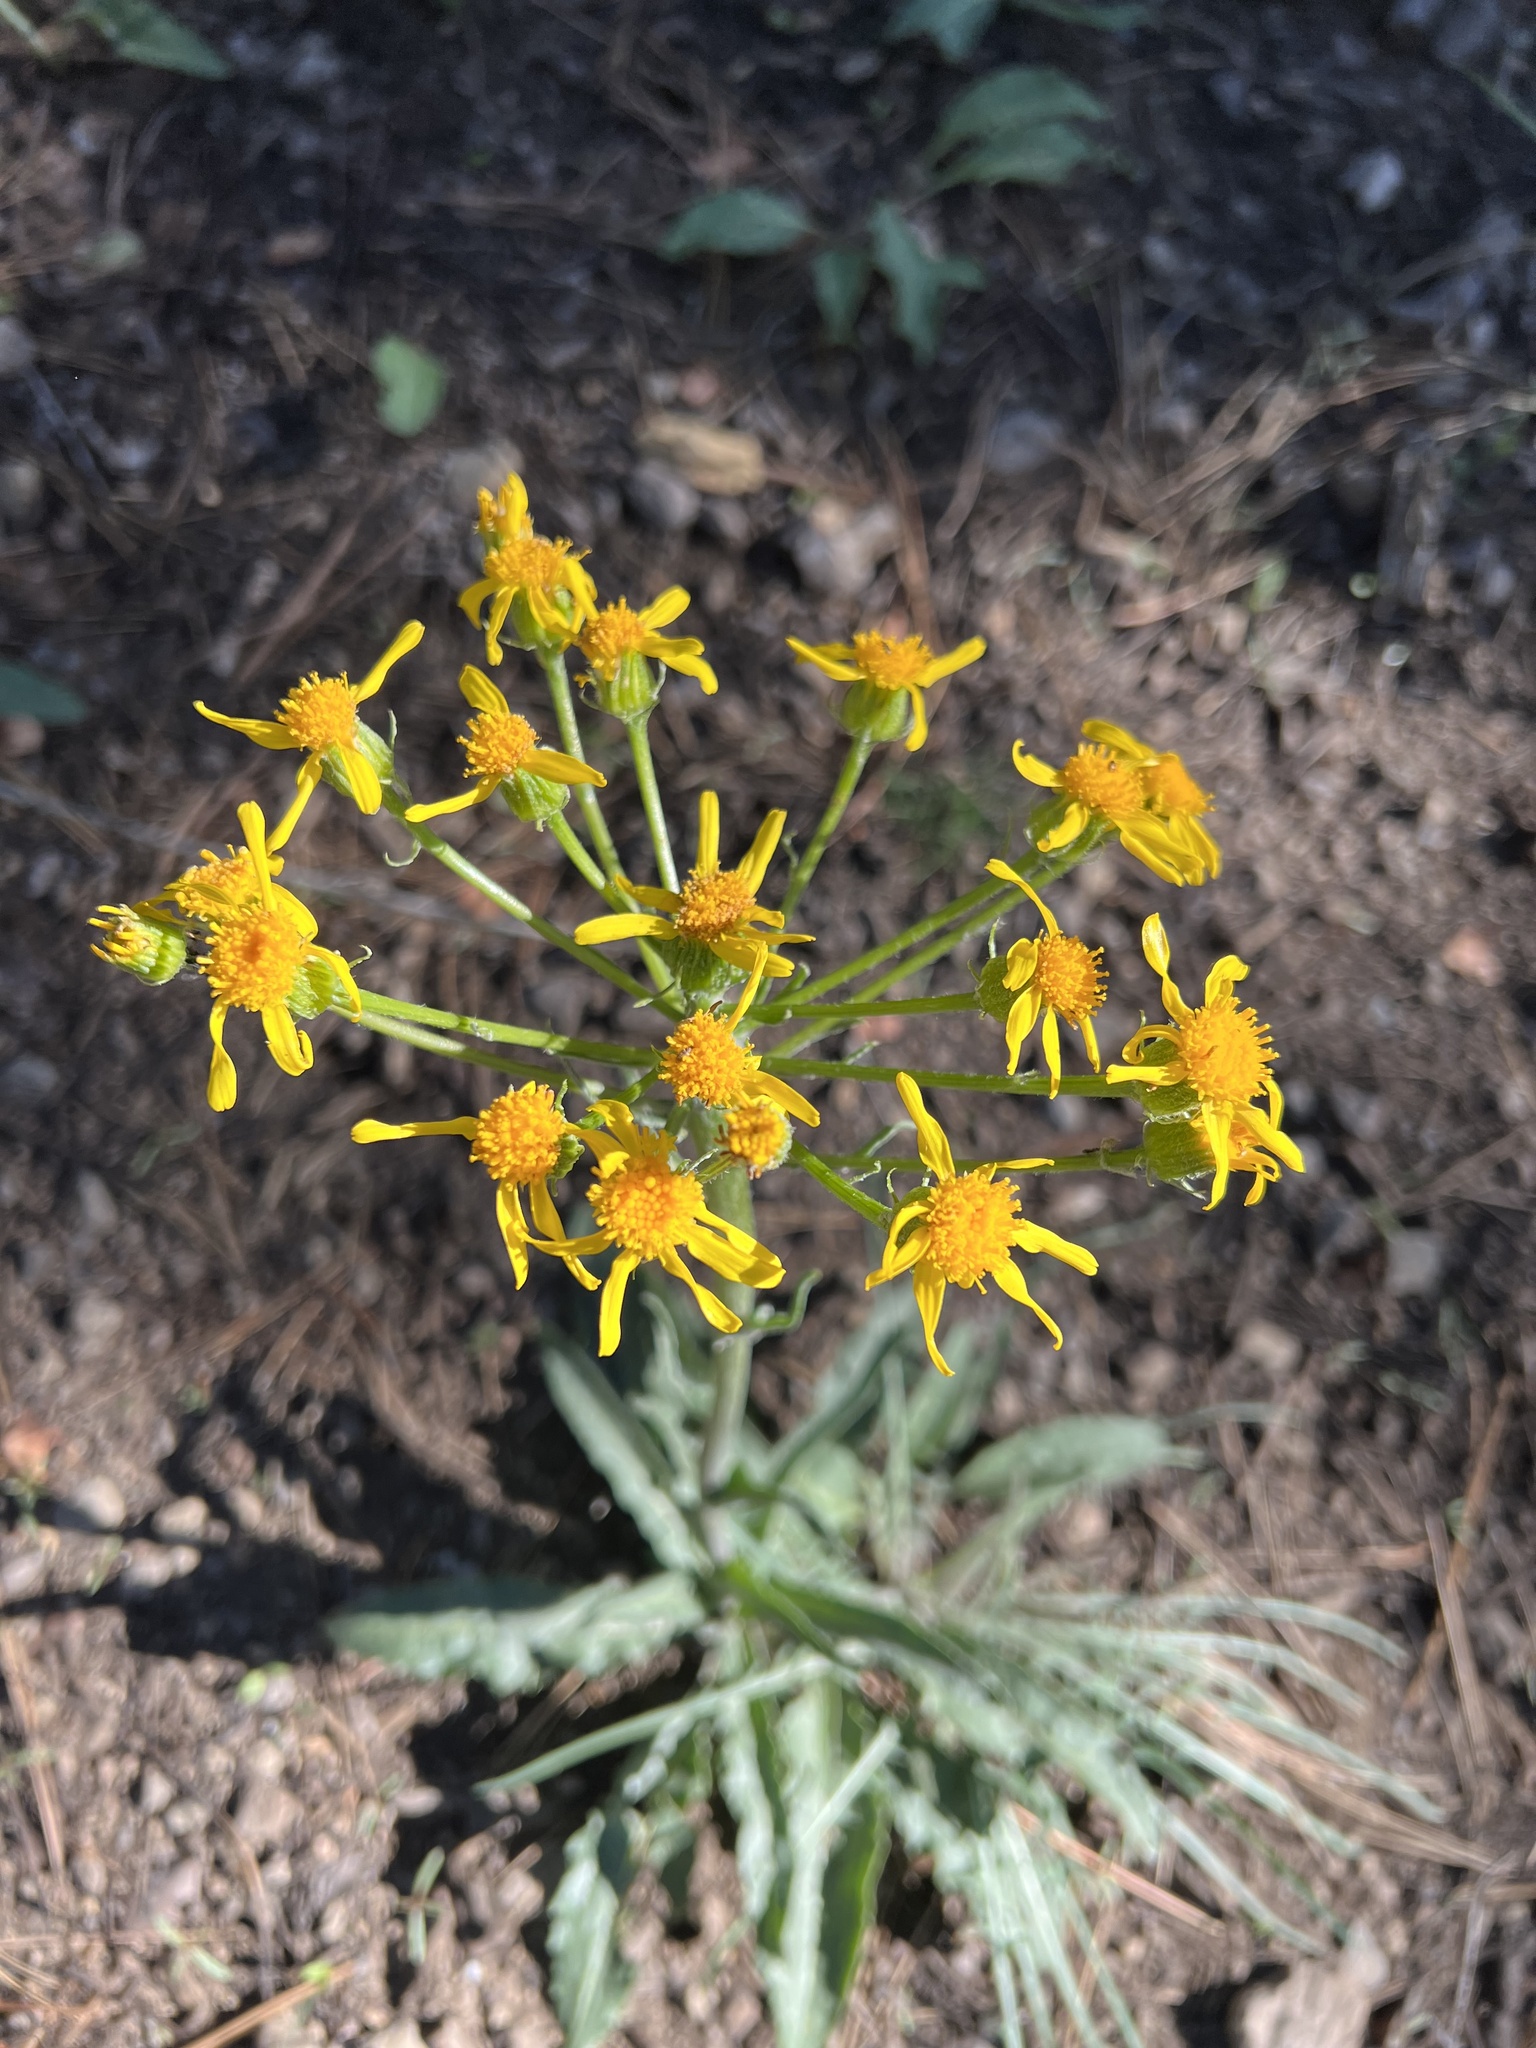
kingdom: Plantae
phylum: Tracheophyta
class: Magnoliopsida
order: Asterales
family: Asteraceae
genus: Senecio
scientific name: Senecio integerrimus
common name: Gaugeplant
